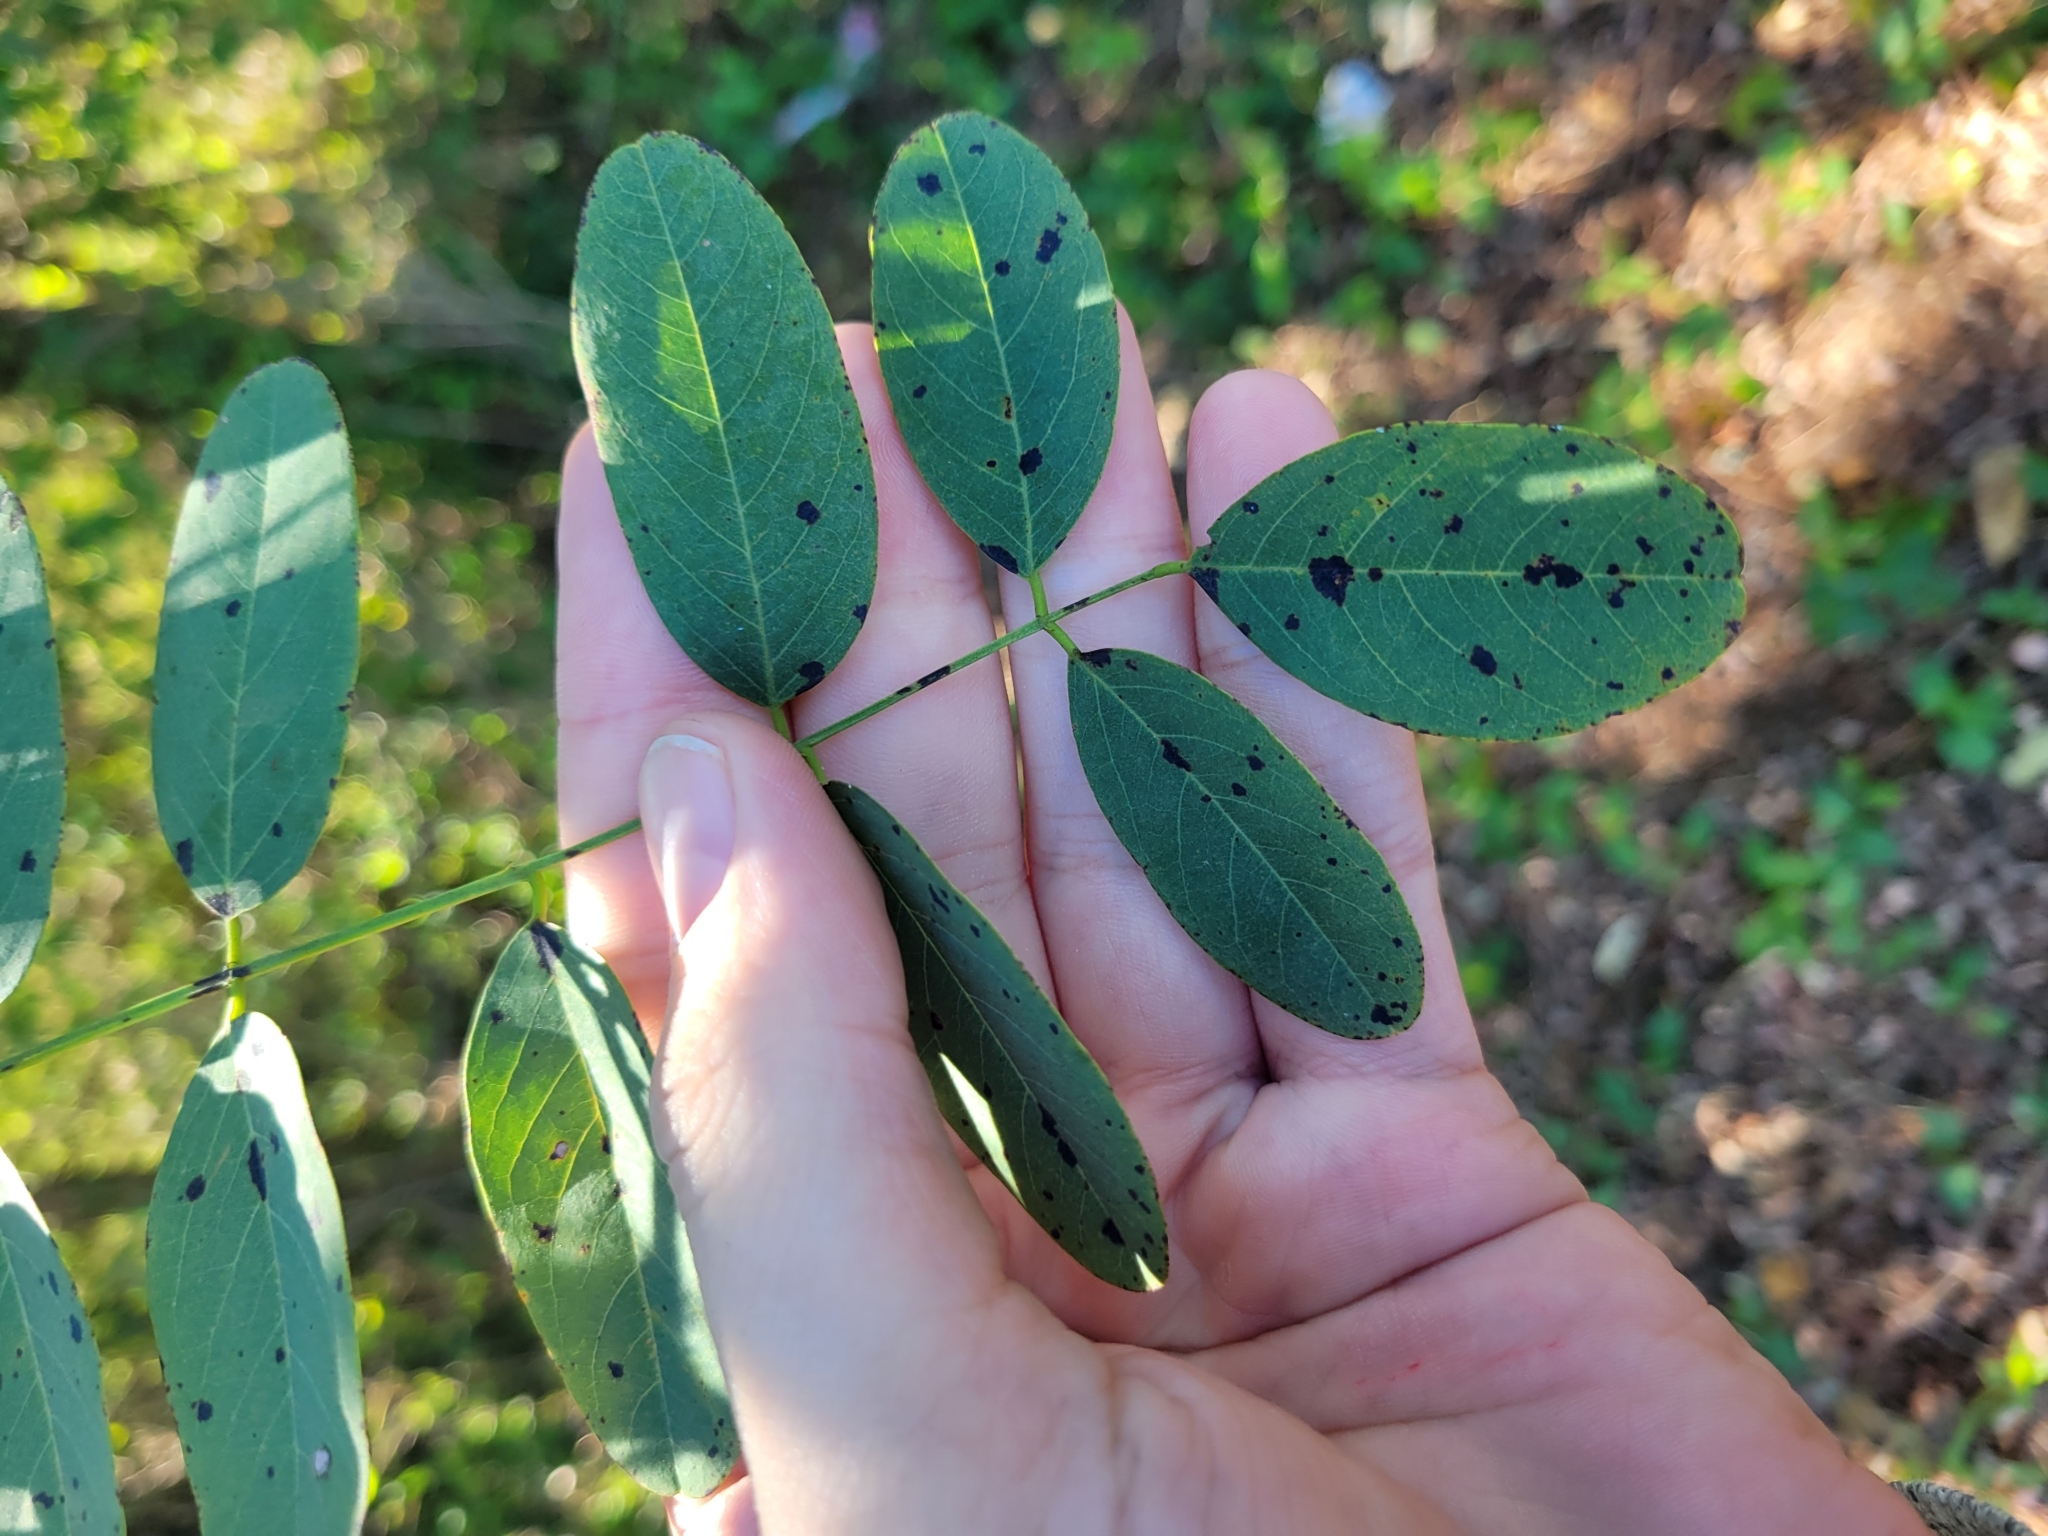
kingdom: Plantae
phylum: Tracheophyta
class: Magnoliopsida
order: Fabales
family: Fabaceae
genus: Robinia
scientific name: Robinia pseudoacacia
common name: Black locust
